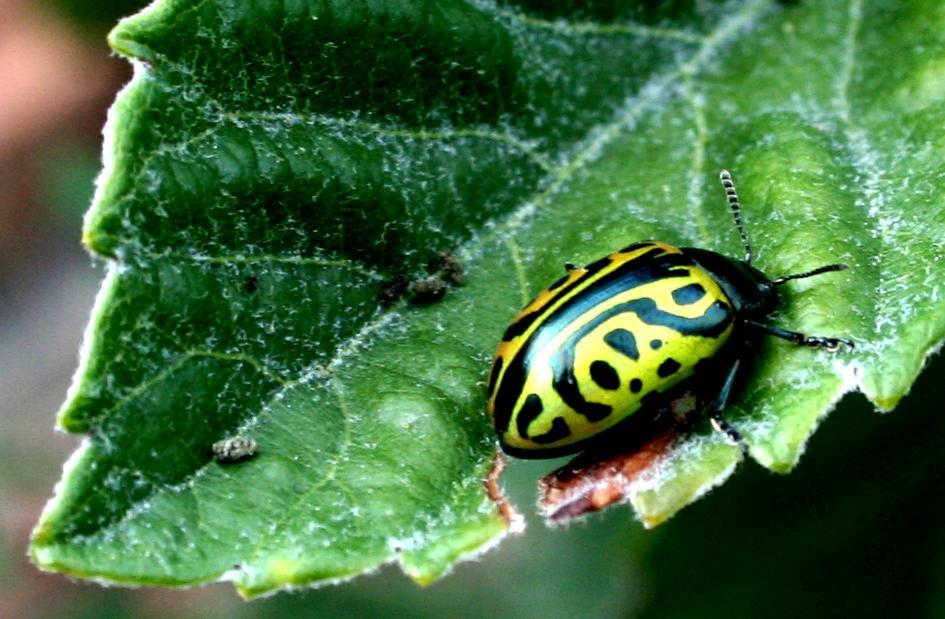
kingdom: Animalia
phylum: Arthropoda
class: Insecta
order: Coleoptera
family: Chrysomelidae
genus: Calligrapha
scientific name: Calligrapha mexicana
